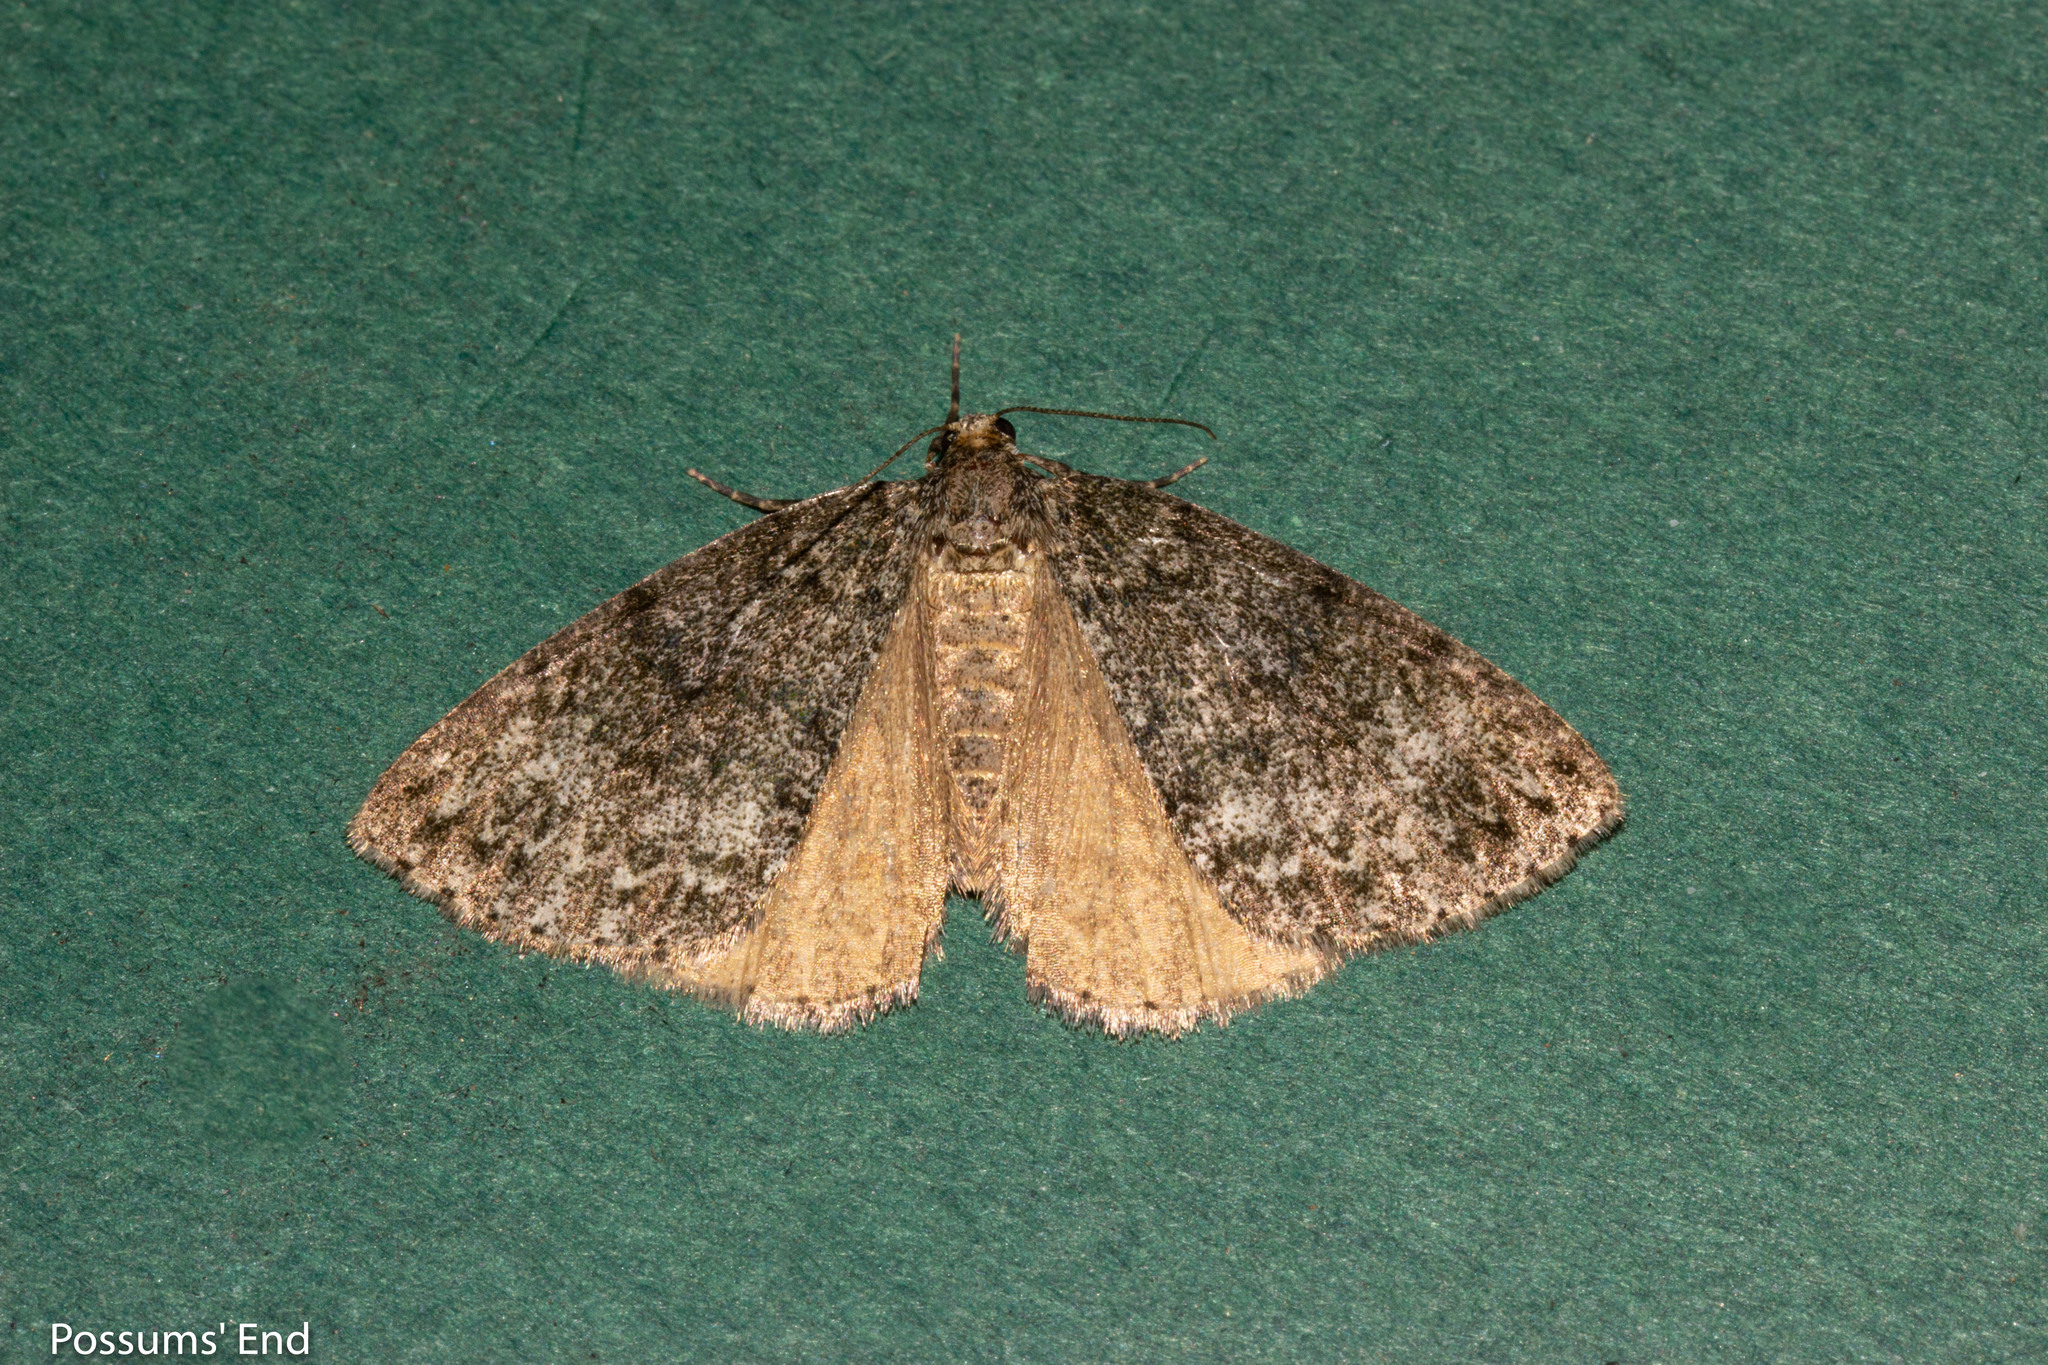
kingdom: Animalia
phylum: Arthropoda
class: Insecta
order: Lepidoptera
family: Geometridae
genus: Pseudocoremia
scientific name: Pseudocoremia indistincta
